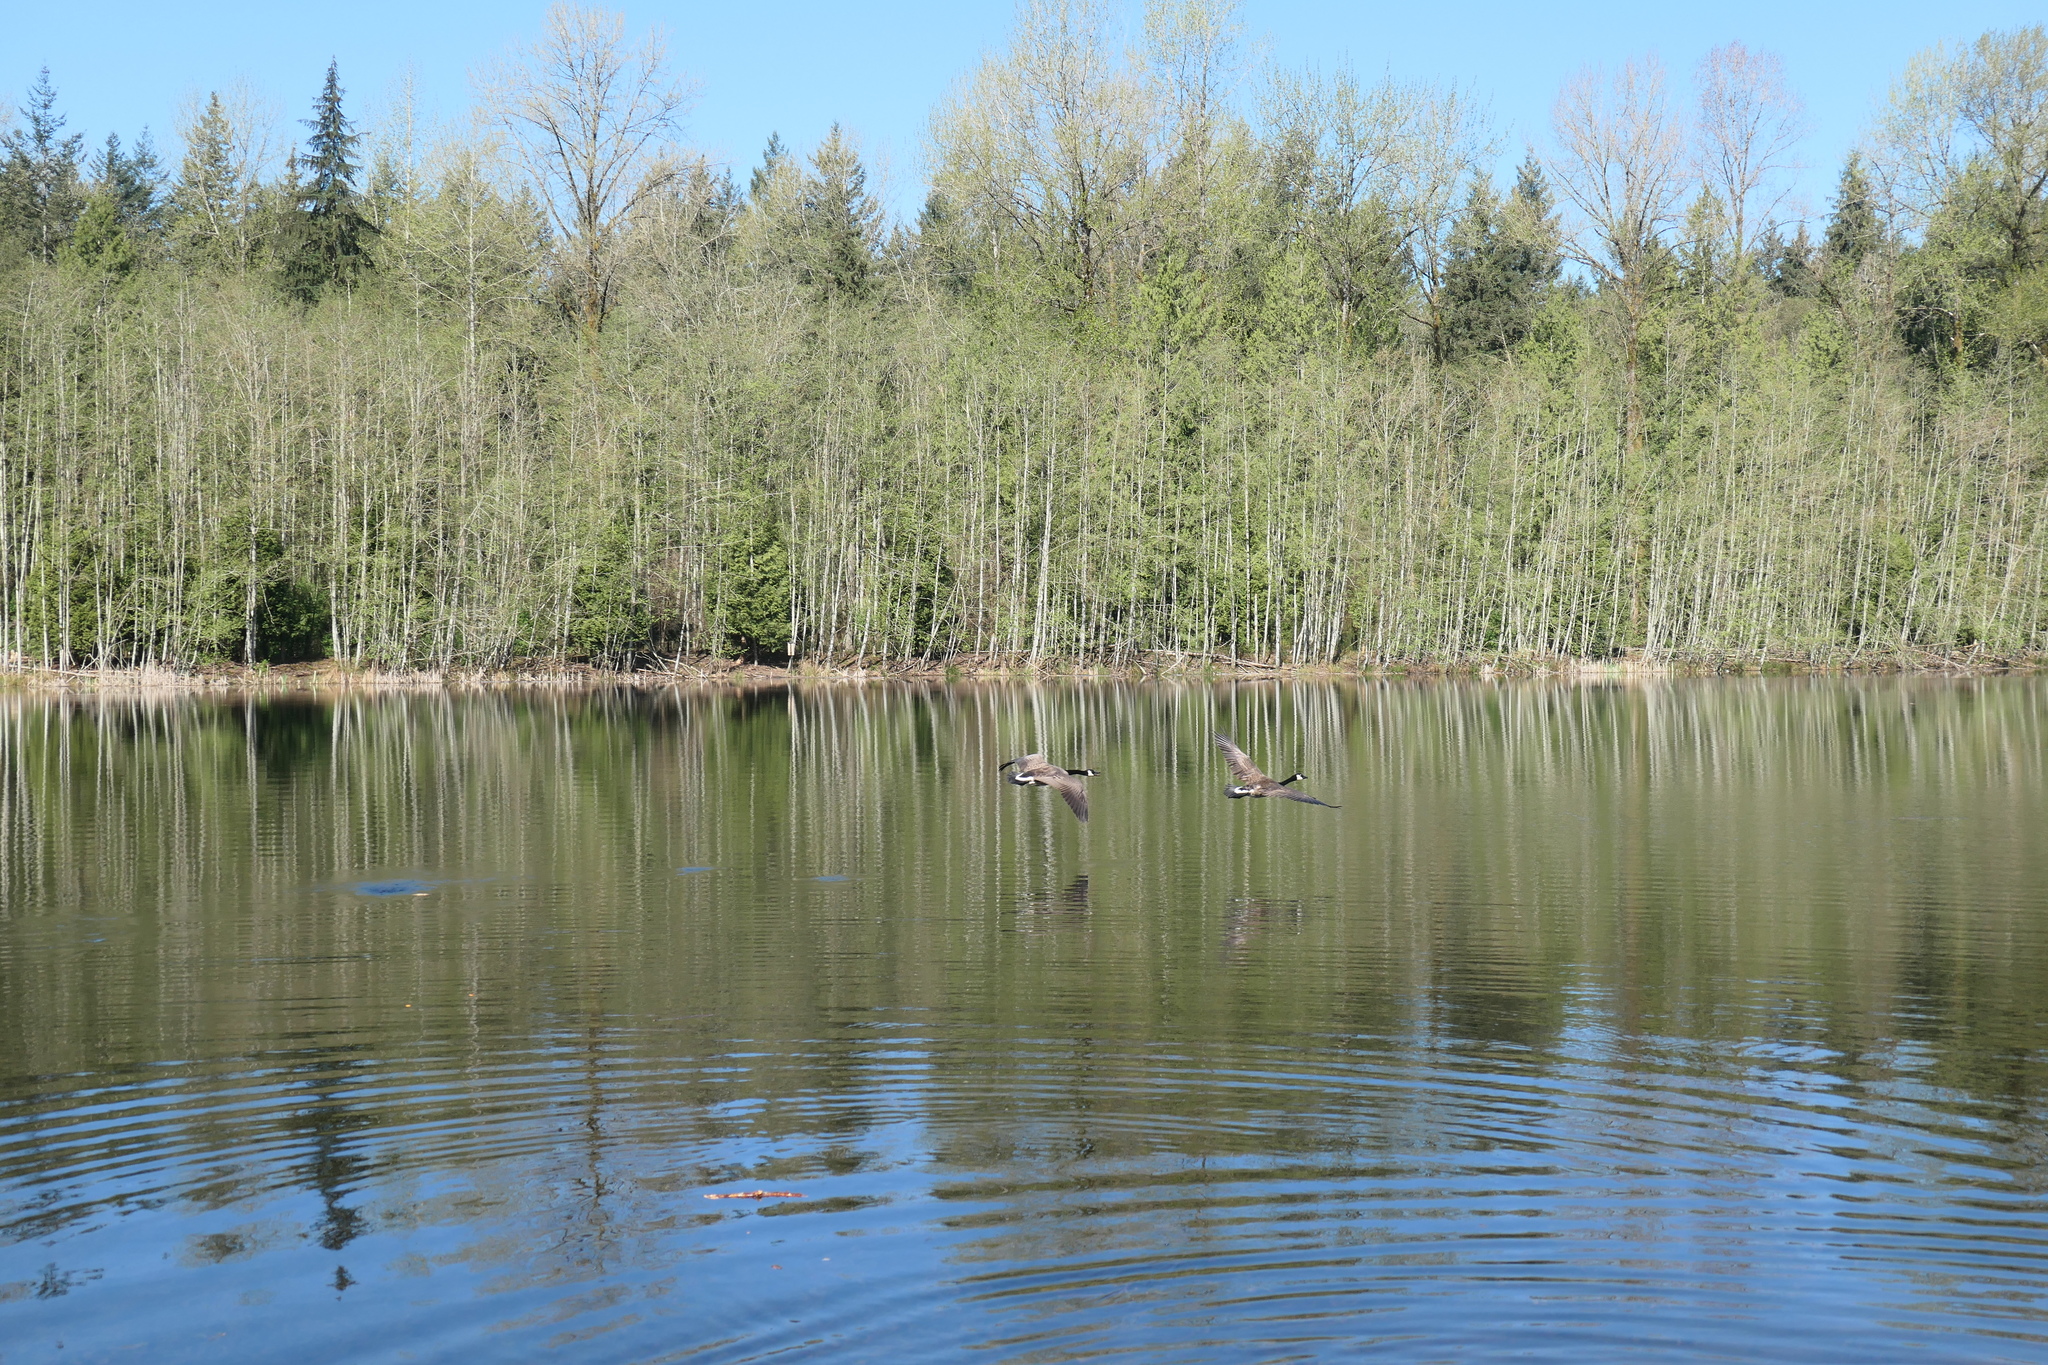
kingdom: Animalia
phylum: Chordata
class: Aves
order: Anseriformes
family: Anatidae
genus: Branta
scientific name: Branta canadensis
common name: Canada goose
